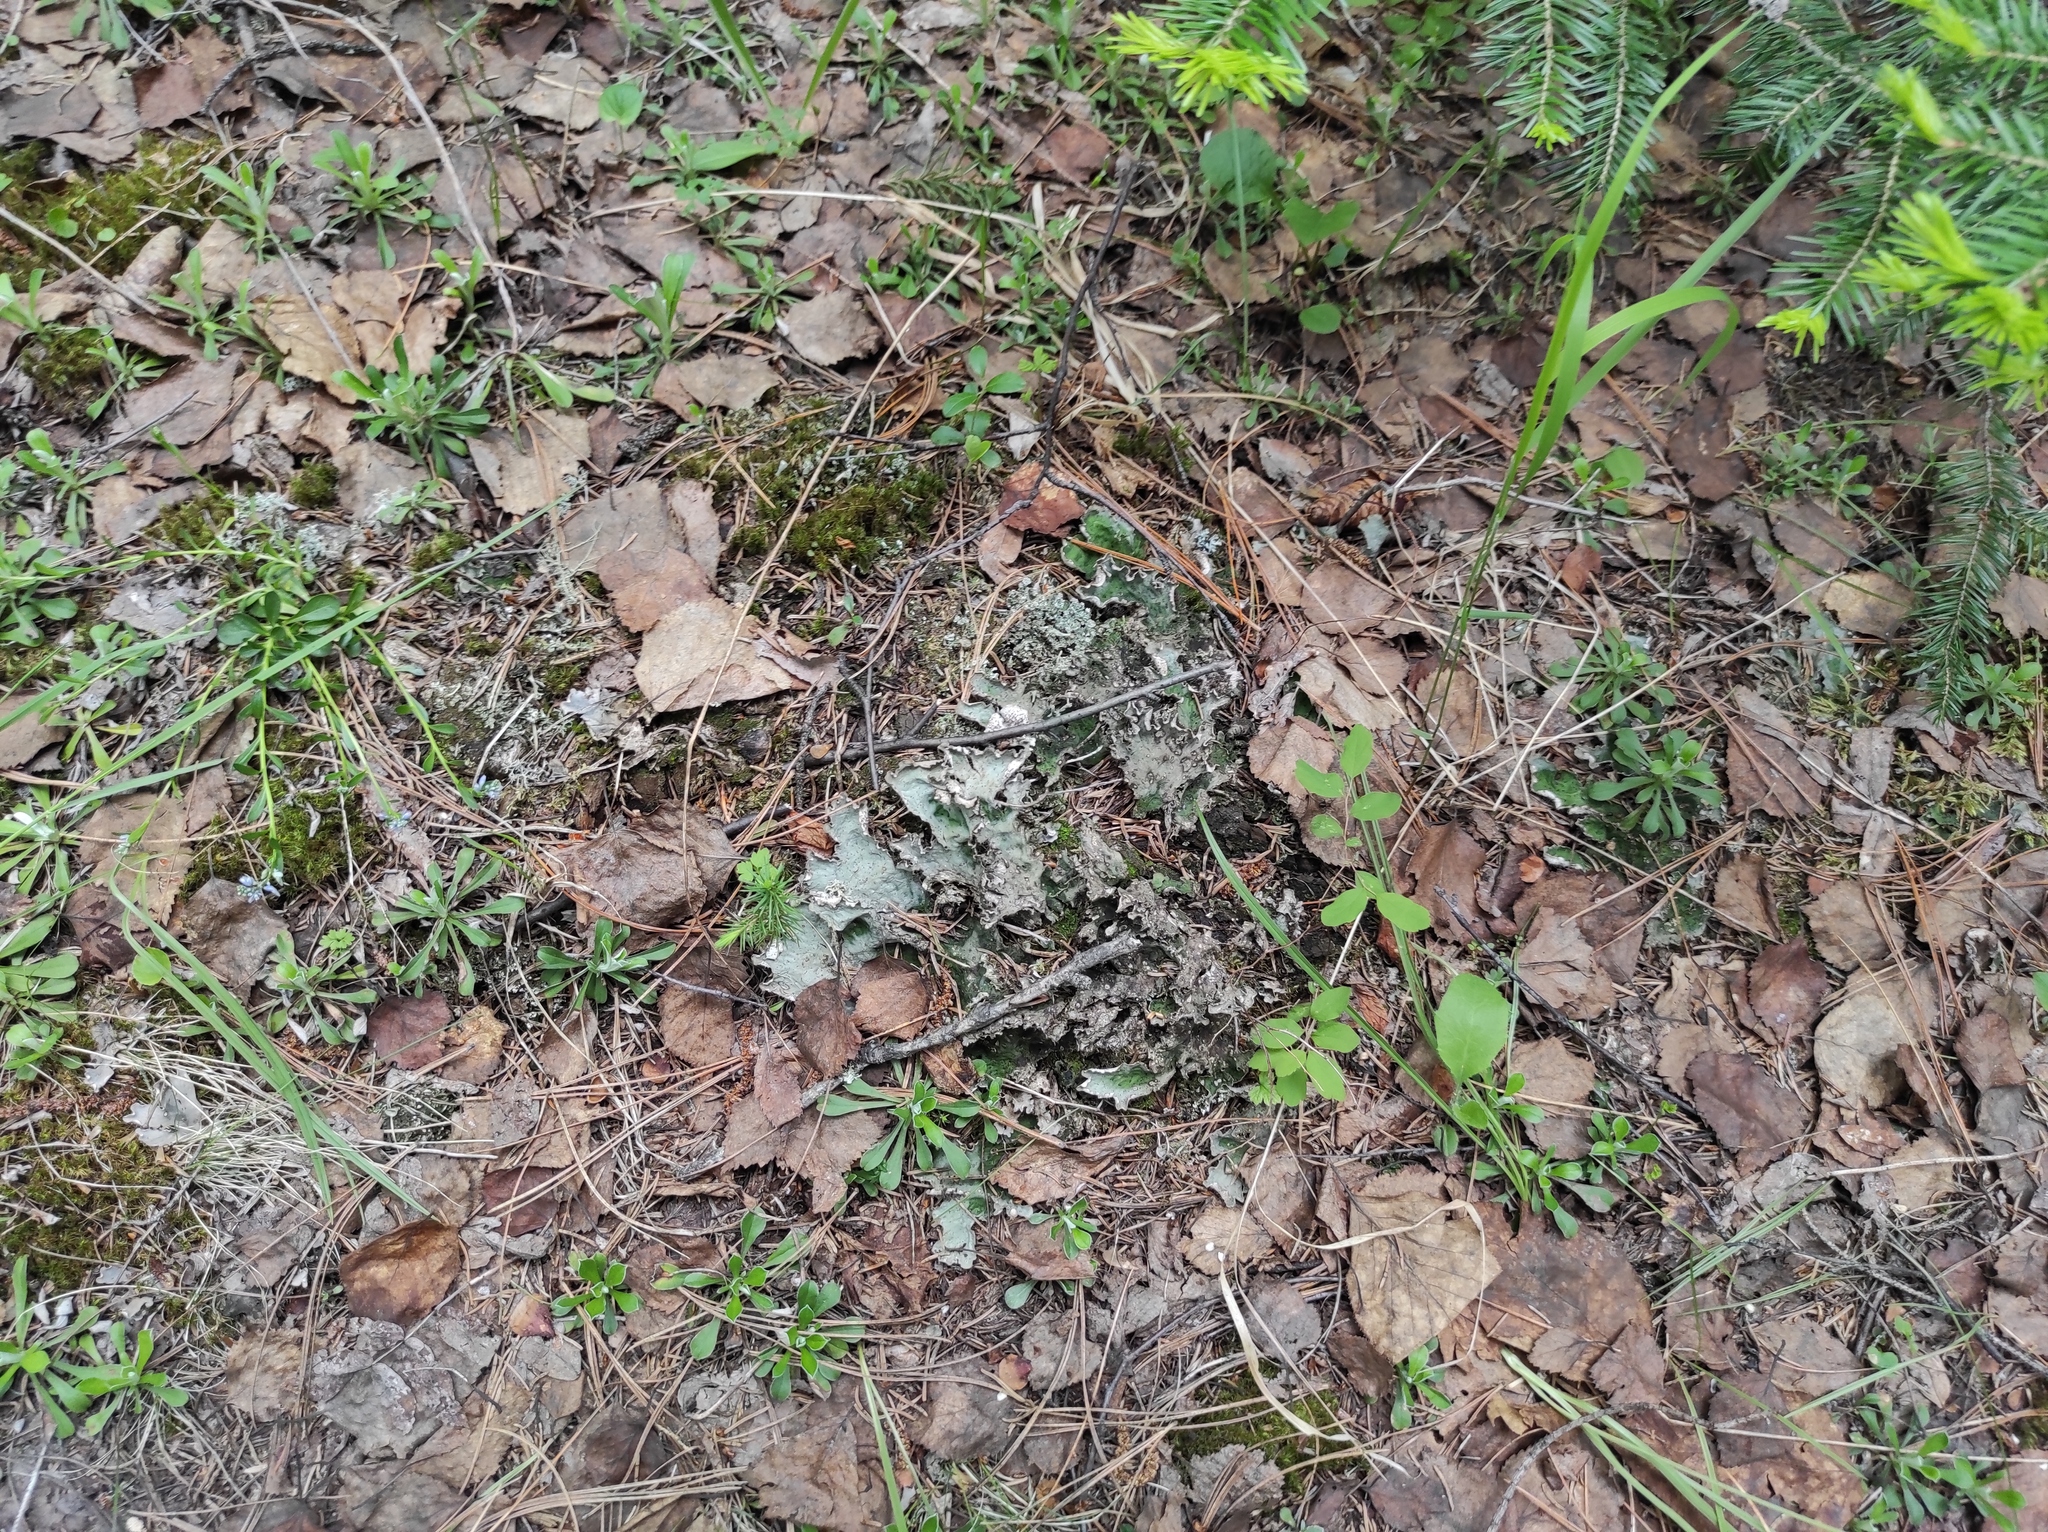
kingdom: Plantae
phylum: Tracheophyta
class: Magnoliopsida
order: Asterales
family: Asteraceae
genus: Antennaria
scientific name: Antennaria dioica
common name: Mountain everlasting
